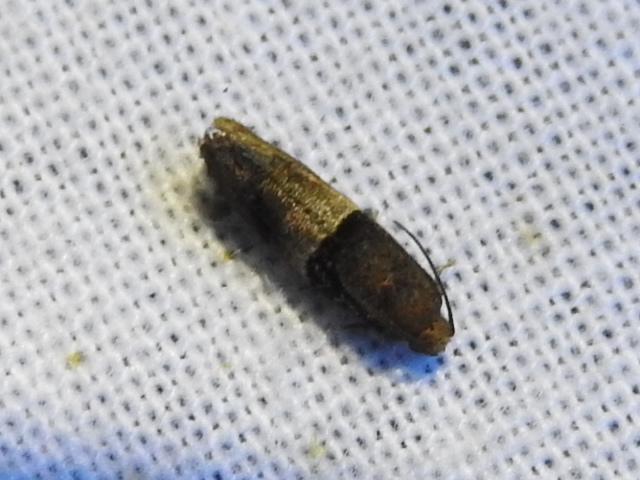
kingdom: Animalia
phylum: Arthropoda
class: Insecta
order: Lepidoptera
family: Tortricidae
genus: Larisa
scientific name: Larisa subsolana
